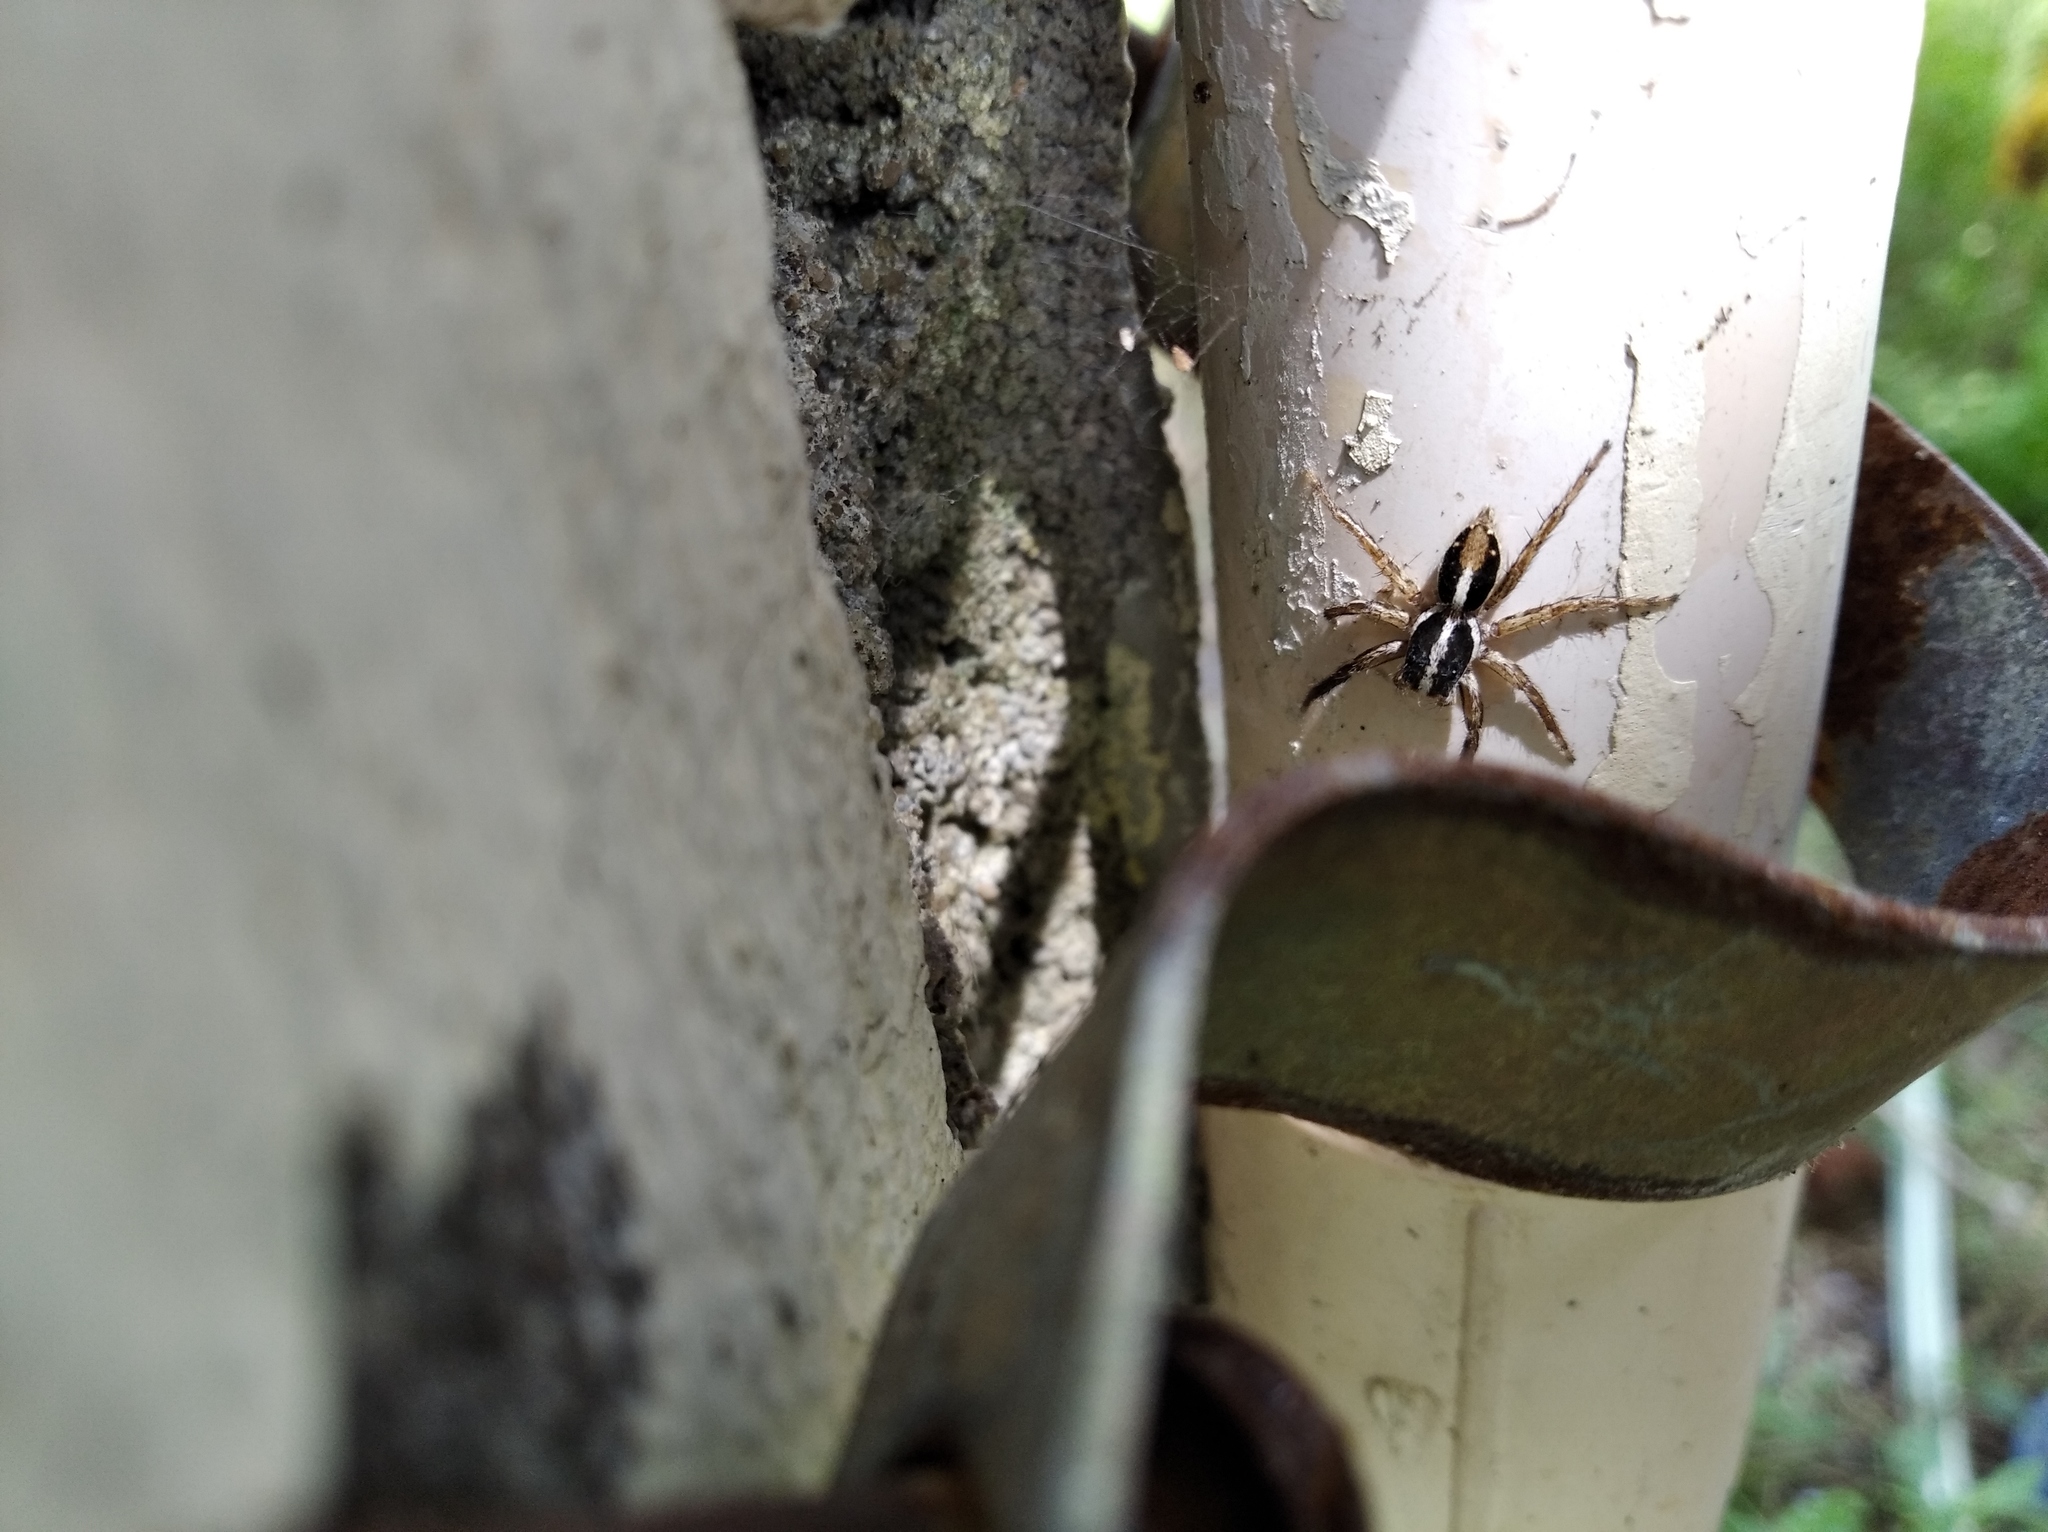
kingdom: Animalia
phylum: Arthropoda
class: Arachnida
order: Araneae
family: Salticidae
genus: Plexippus
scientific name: Plexippus paykulli
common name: Pantropical jumper
